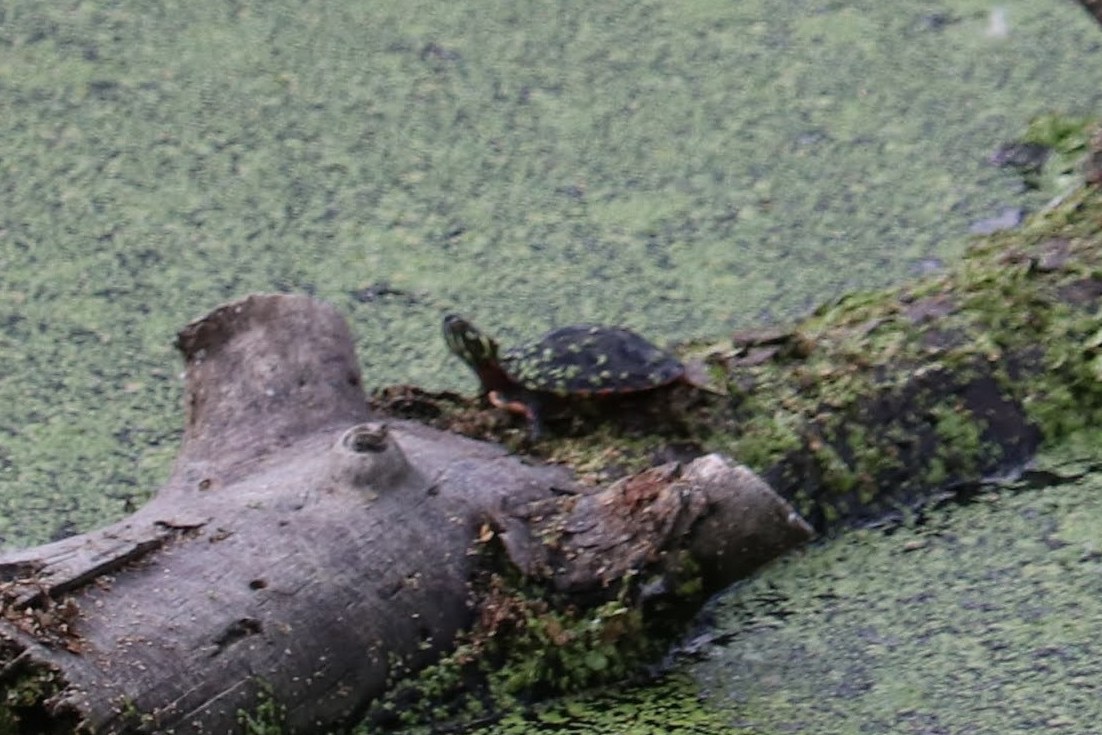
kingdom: Animalia
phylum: Chordata
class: Testudines
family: Emydidae
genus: Chrysemys
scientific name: Chrysemys picta
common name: Painted turtle
